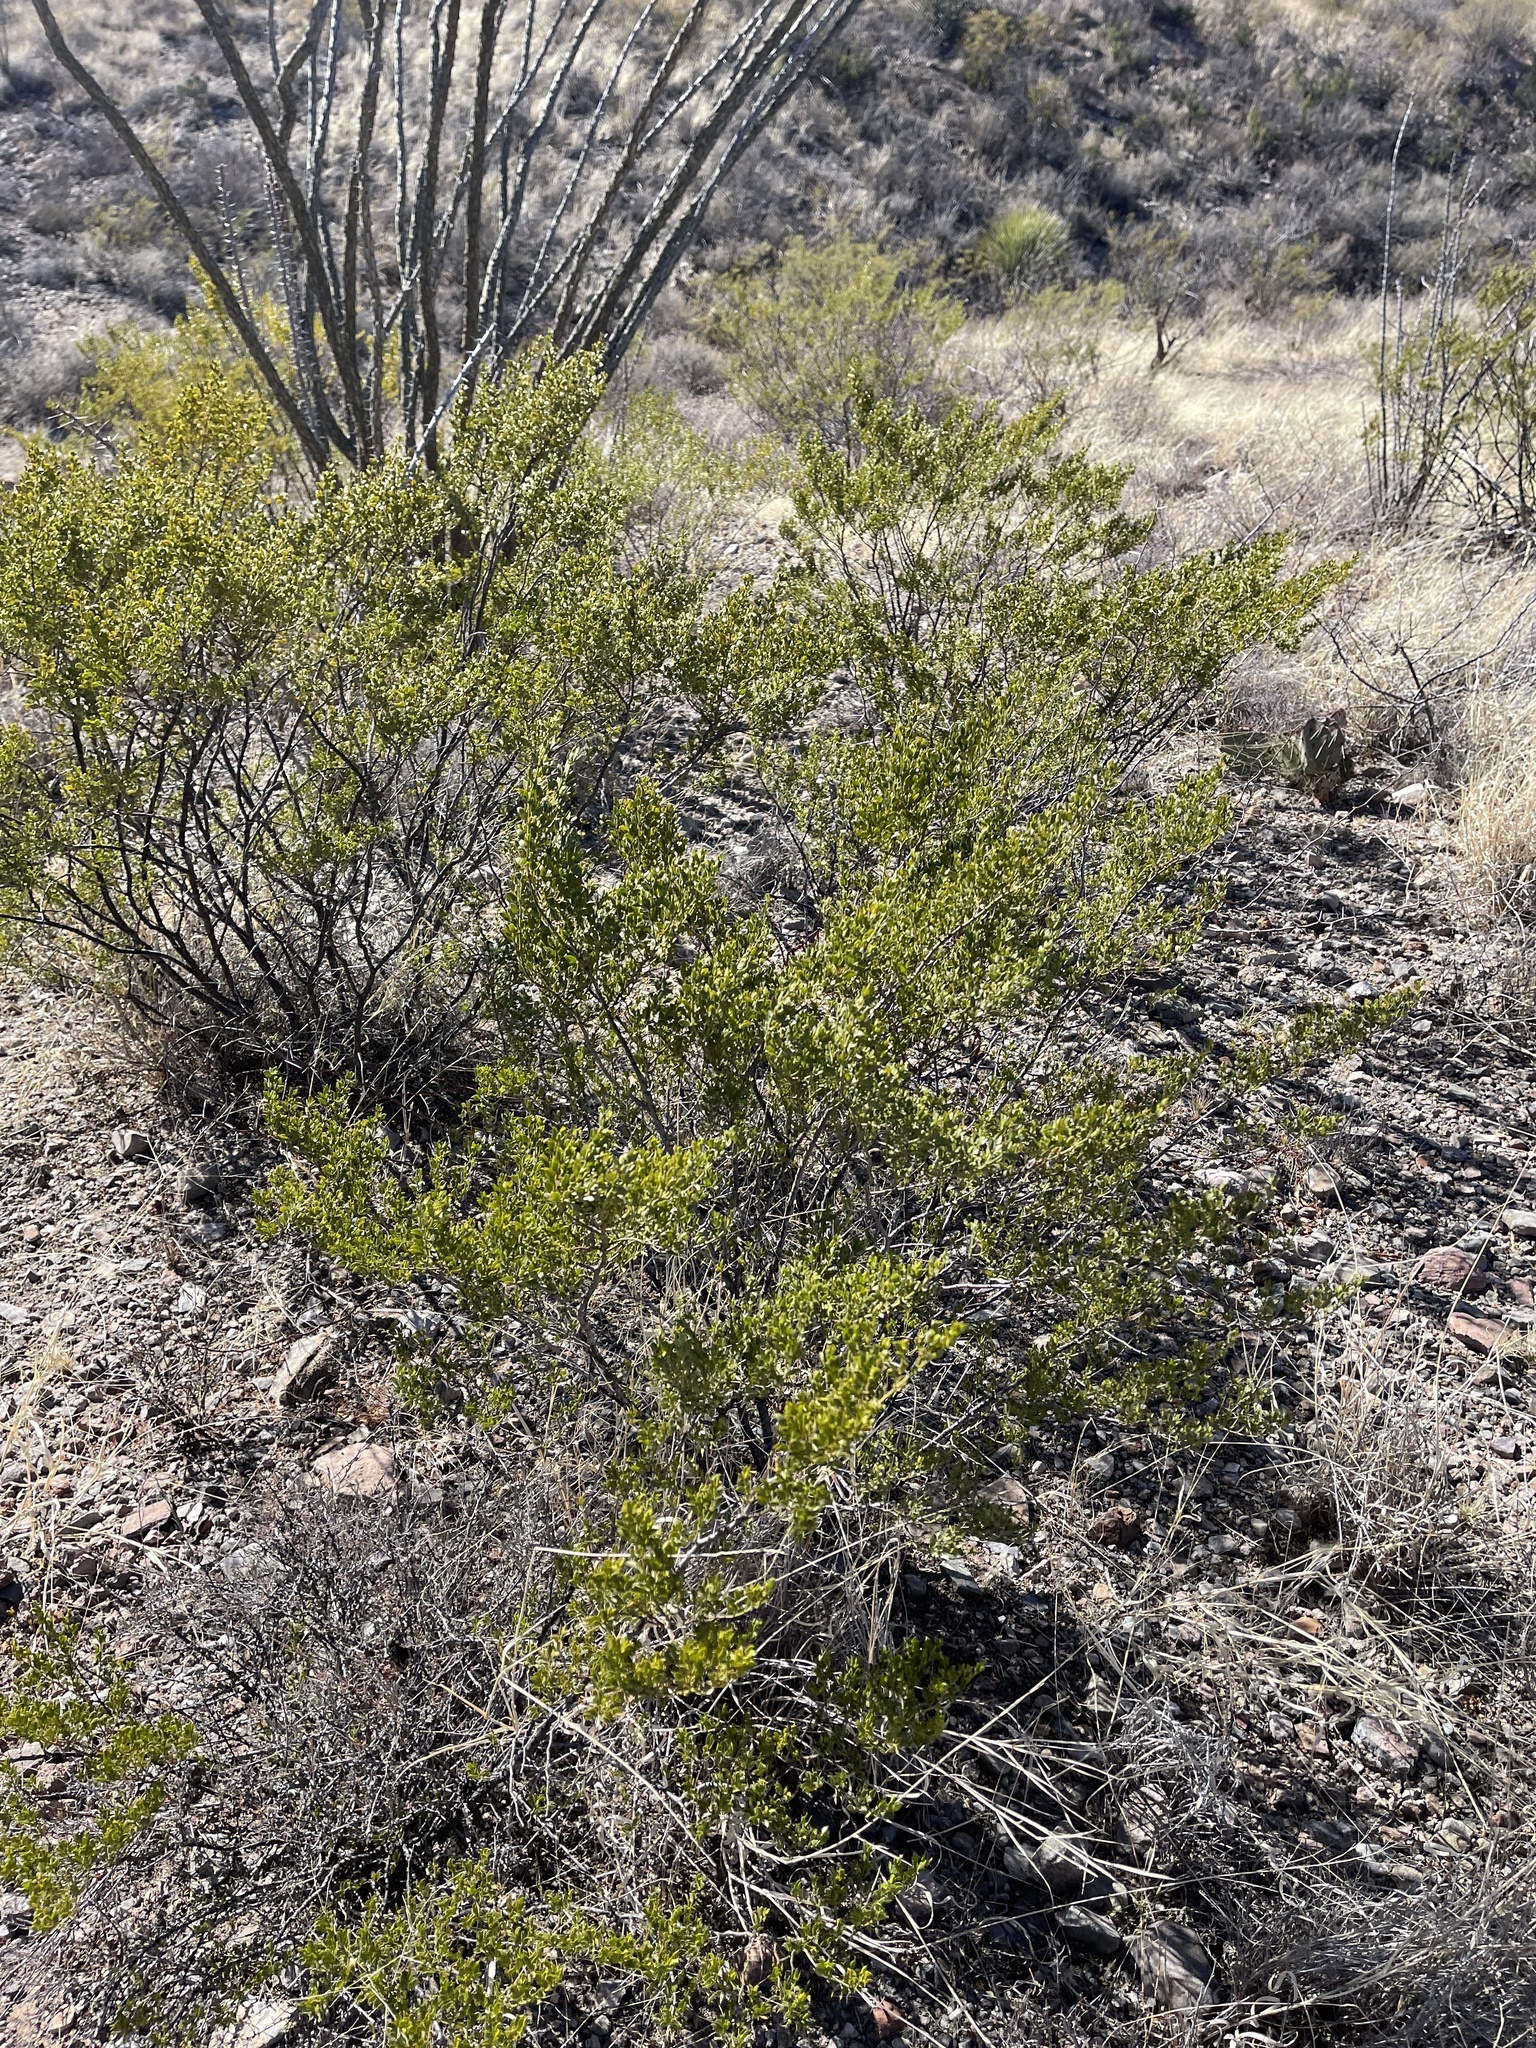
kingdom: Plantae
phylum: Tracheophyta
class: Magnoliopsida
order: Zygophyllales
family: Zygophyllaceae
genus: Larrea
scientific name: Larrea tridentata
